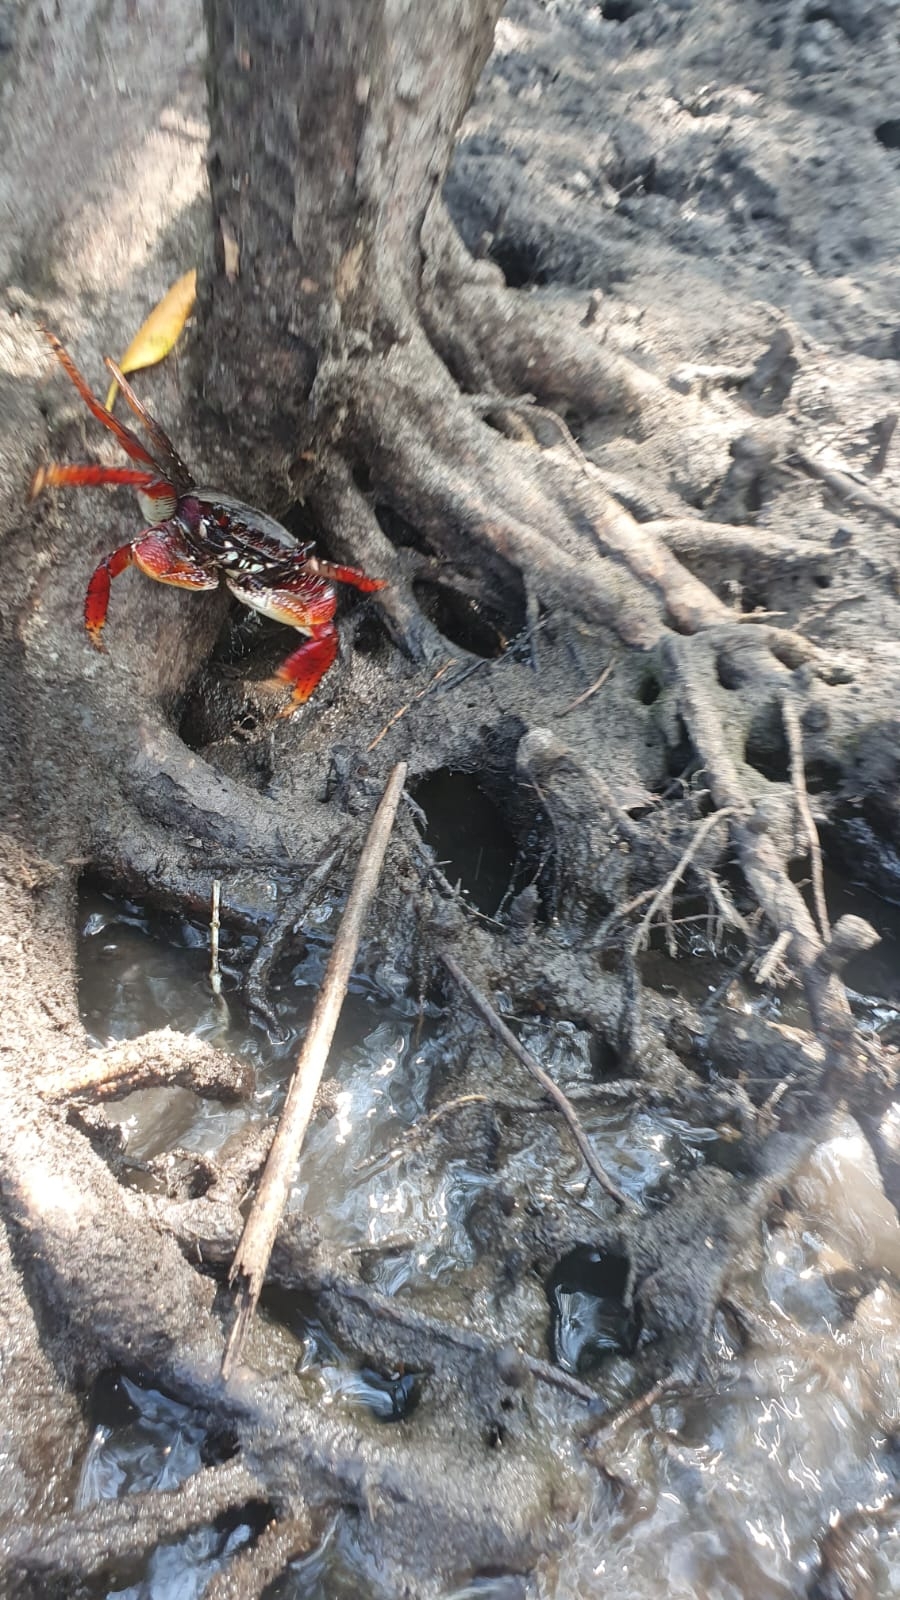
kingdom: Animalia
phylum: Arthropoda
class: Malacostraca
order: Decapoda
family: Grapsidae
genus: Goniopsis
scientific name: Goniopsis cruentata
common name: Mangrove crab
